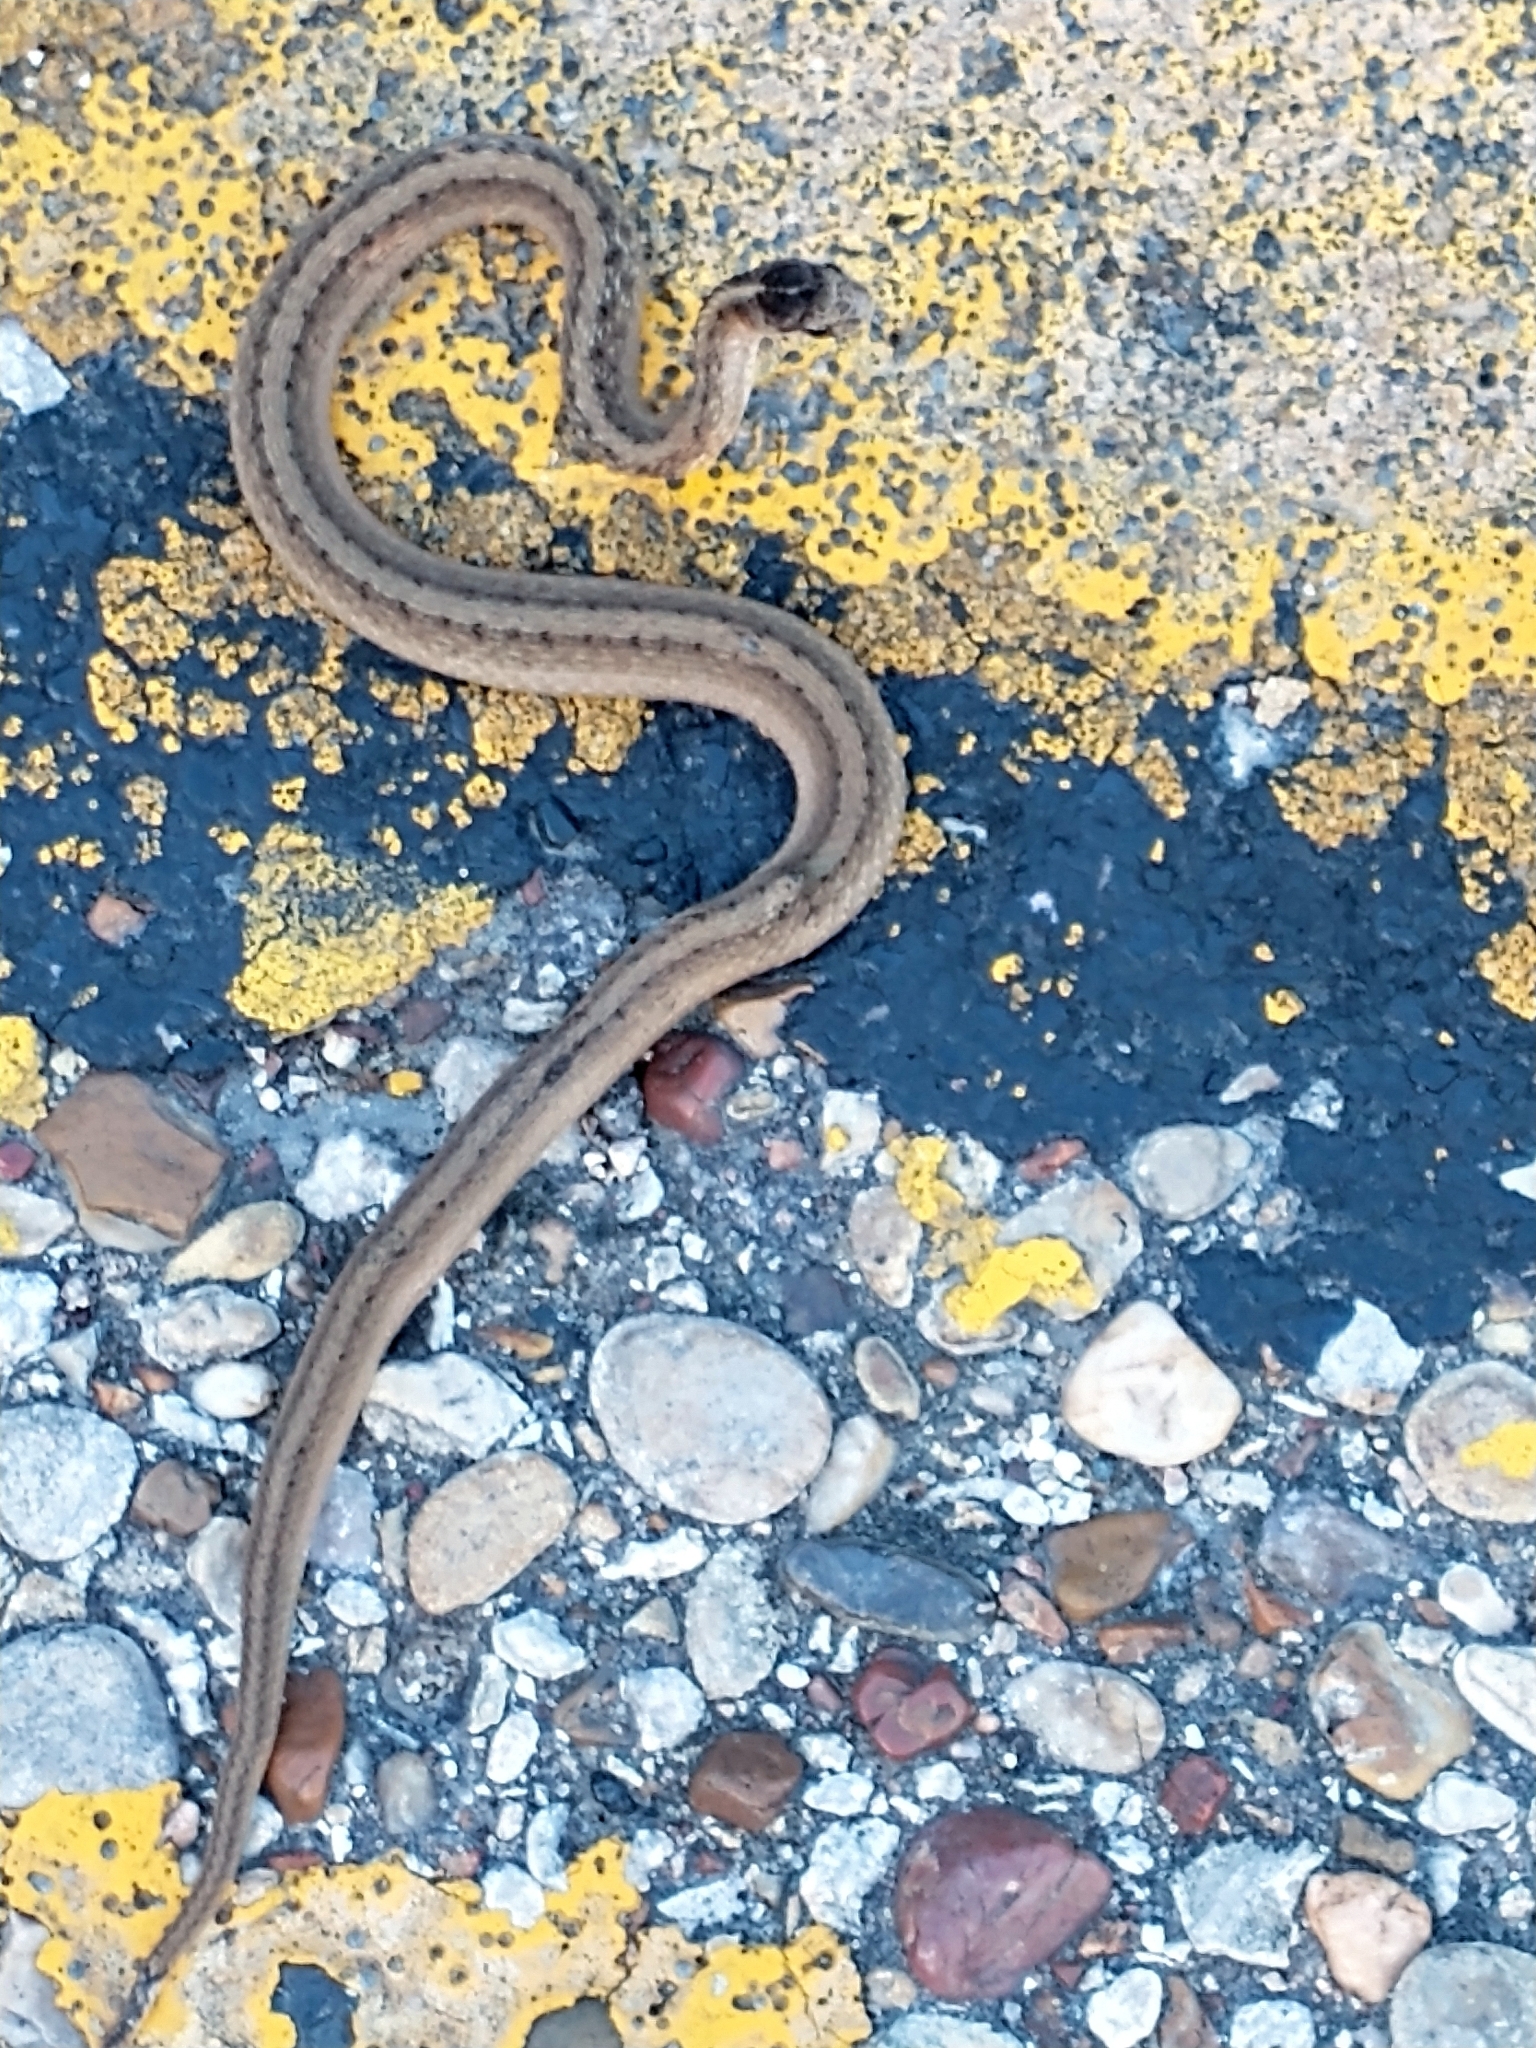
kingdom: Animalia
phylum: Chordata
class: Squamata
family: Colubridae
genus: Storeria
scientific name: Storeria dekayi
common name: (dekay’s) brown snake
